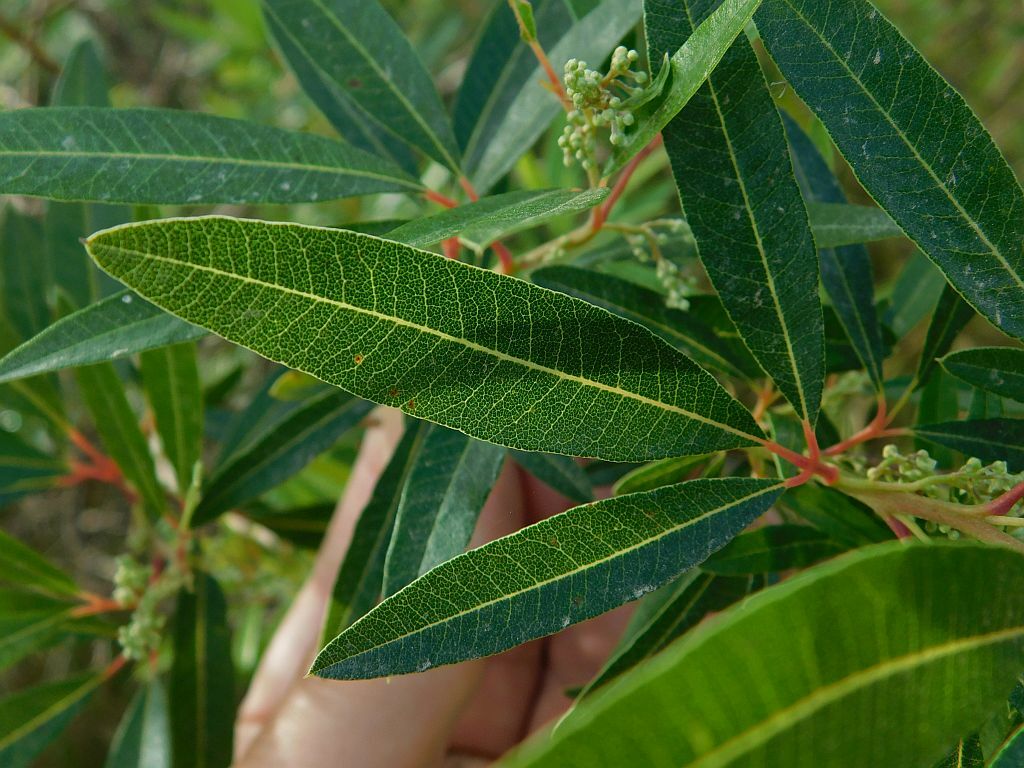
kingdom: Plantae
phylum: Tracheophyta
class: Magnoliopsida
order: Sapindales
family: Anacardiaceae
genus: Searsia
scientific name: Searsia angustifolia
